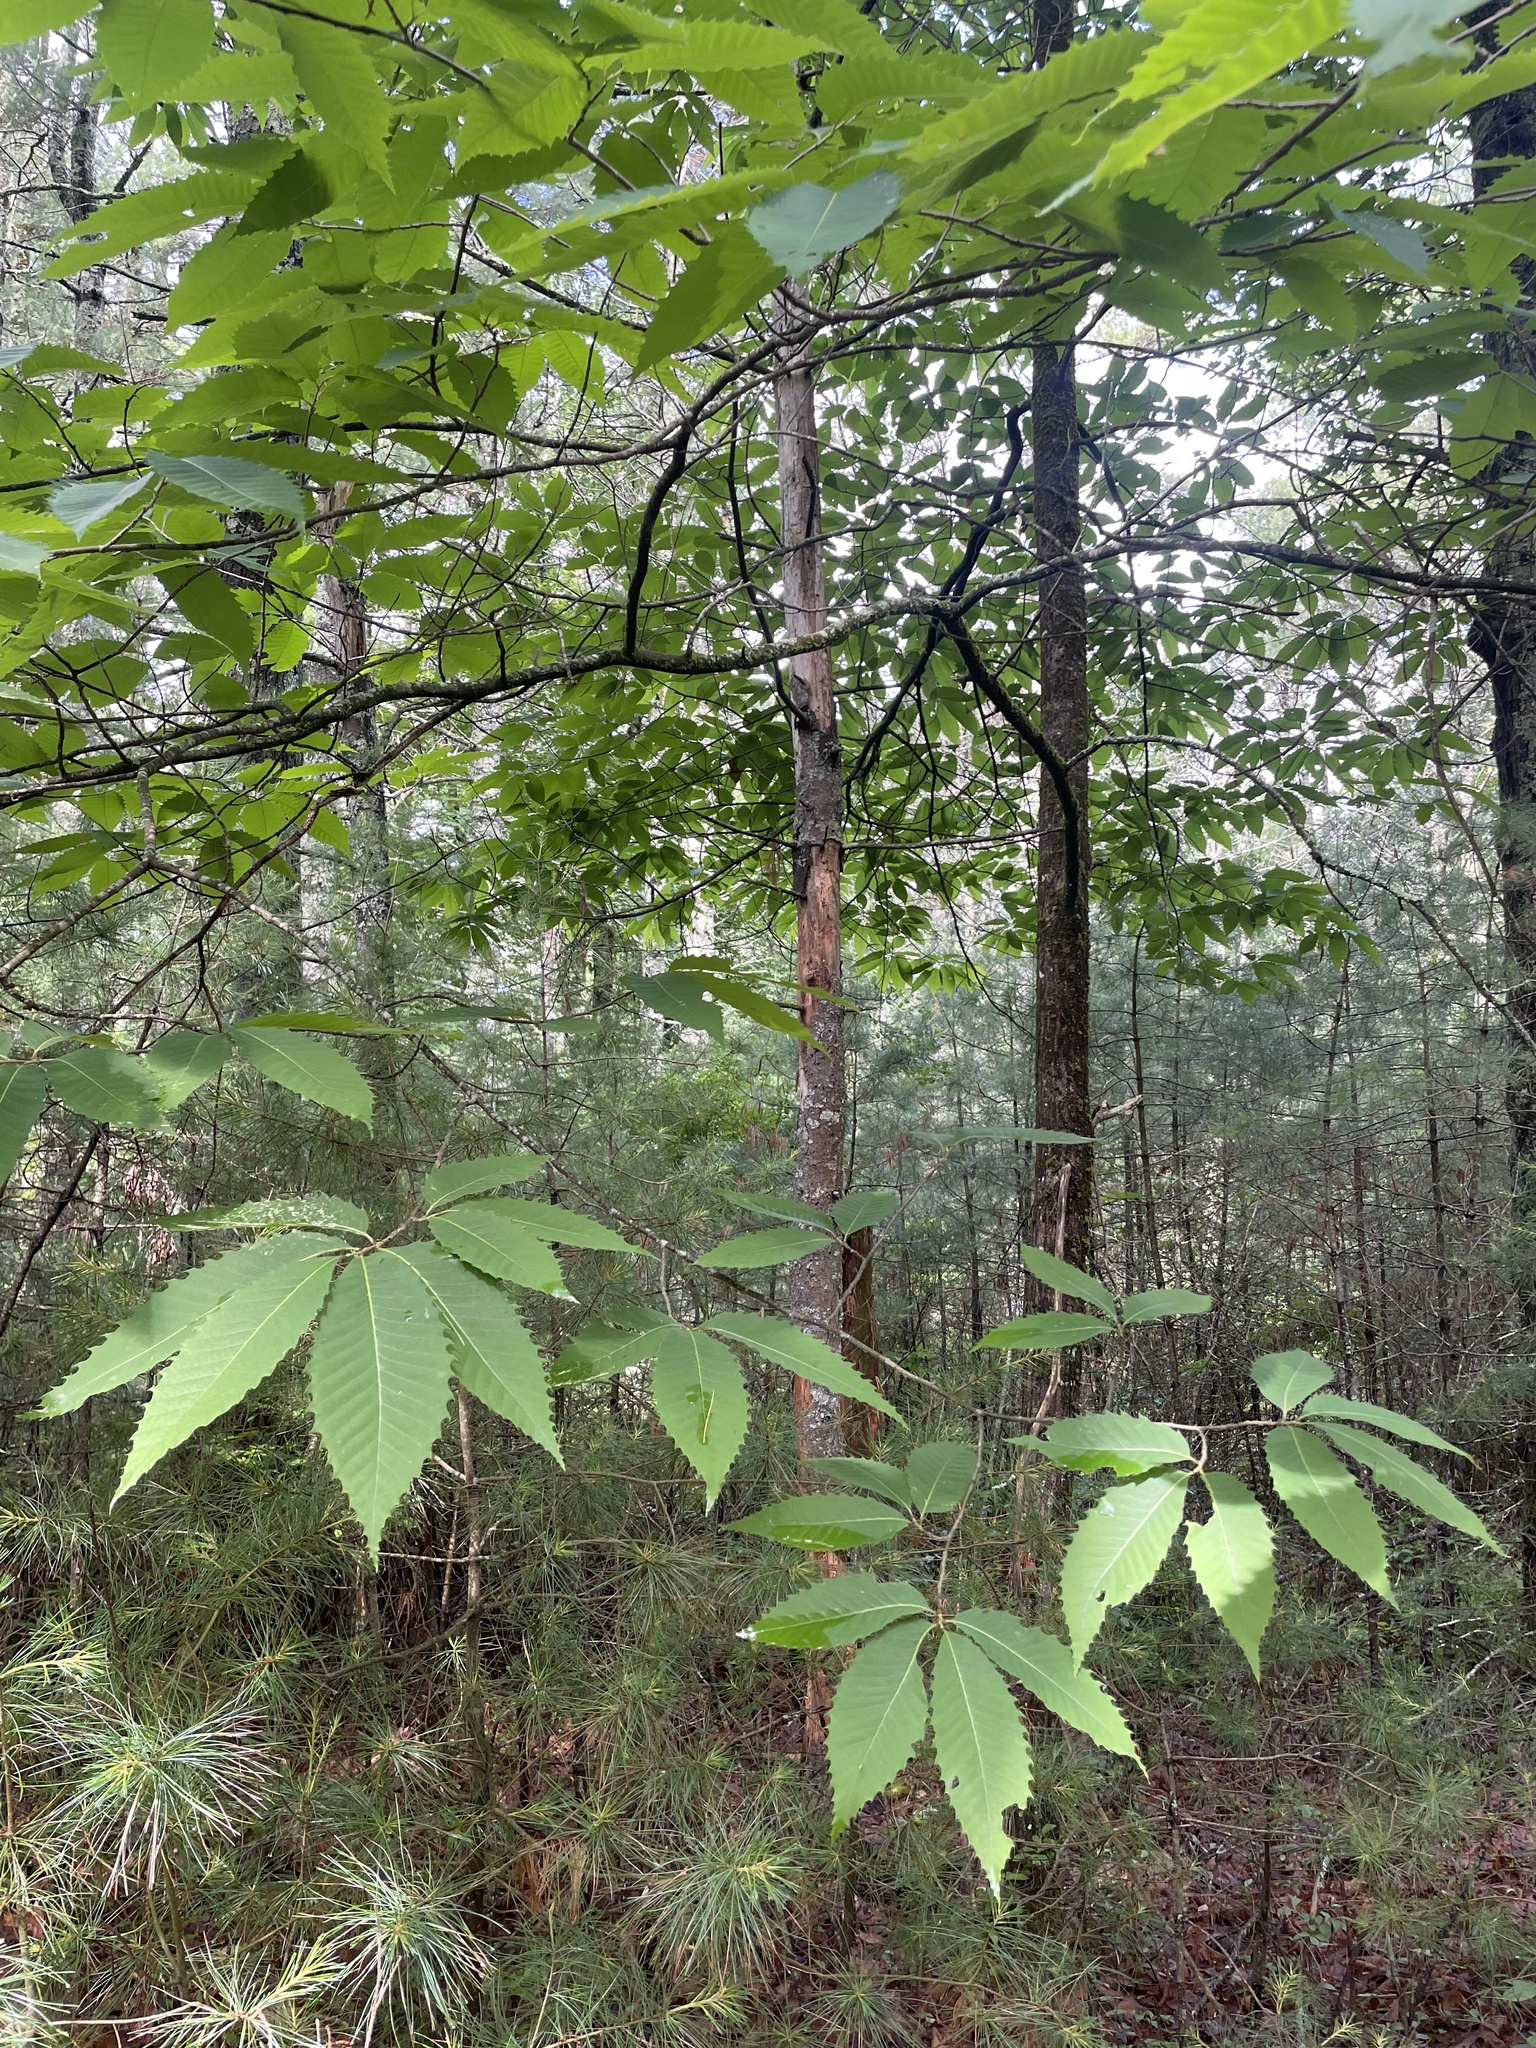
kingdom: Plantae
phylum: Tracheophyta
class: Magnoliopsida
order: Fagales
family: Fagaceae
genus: Castanea
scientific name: Castanea dentata
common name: American chestnut
